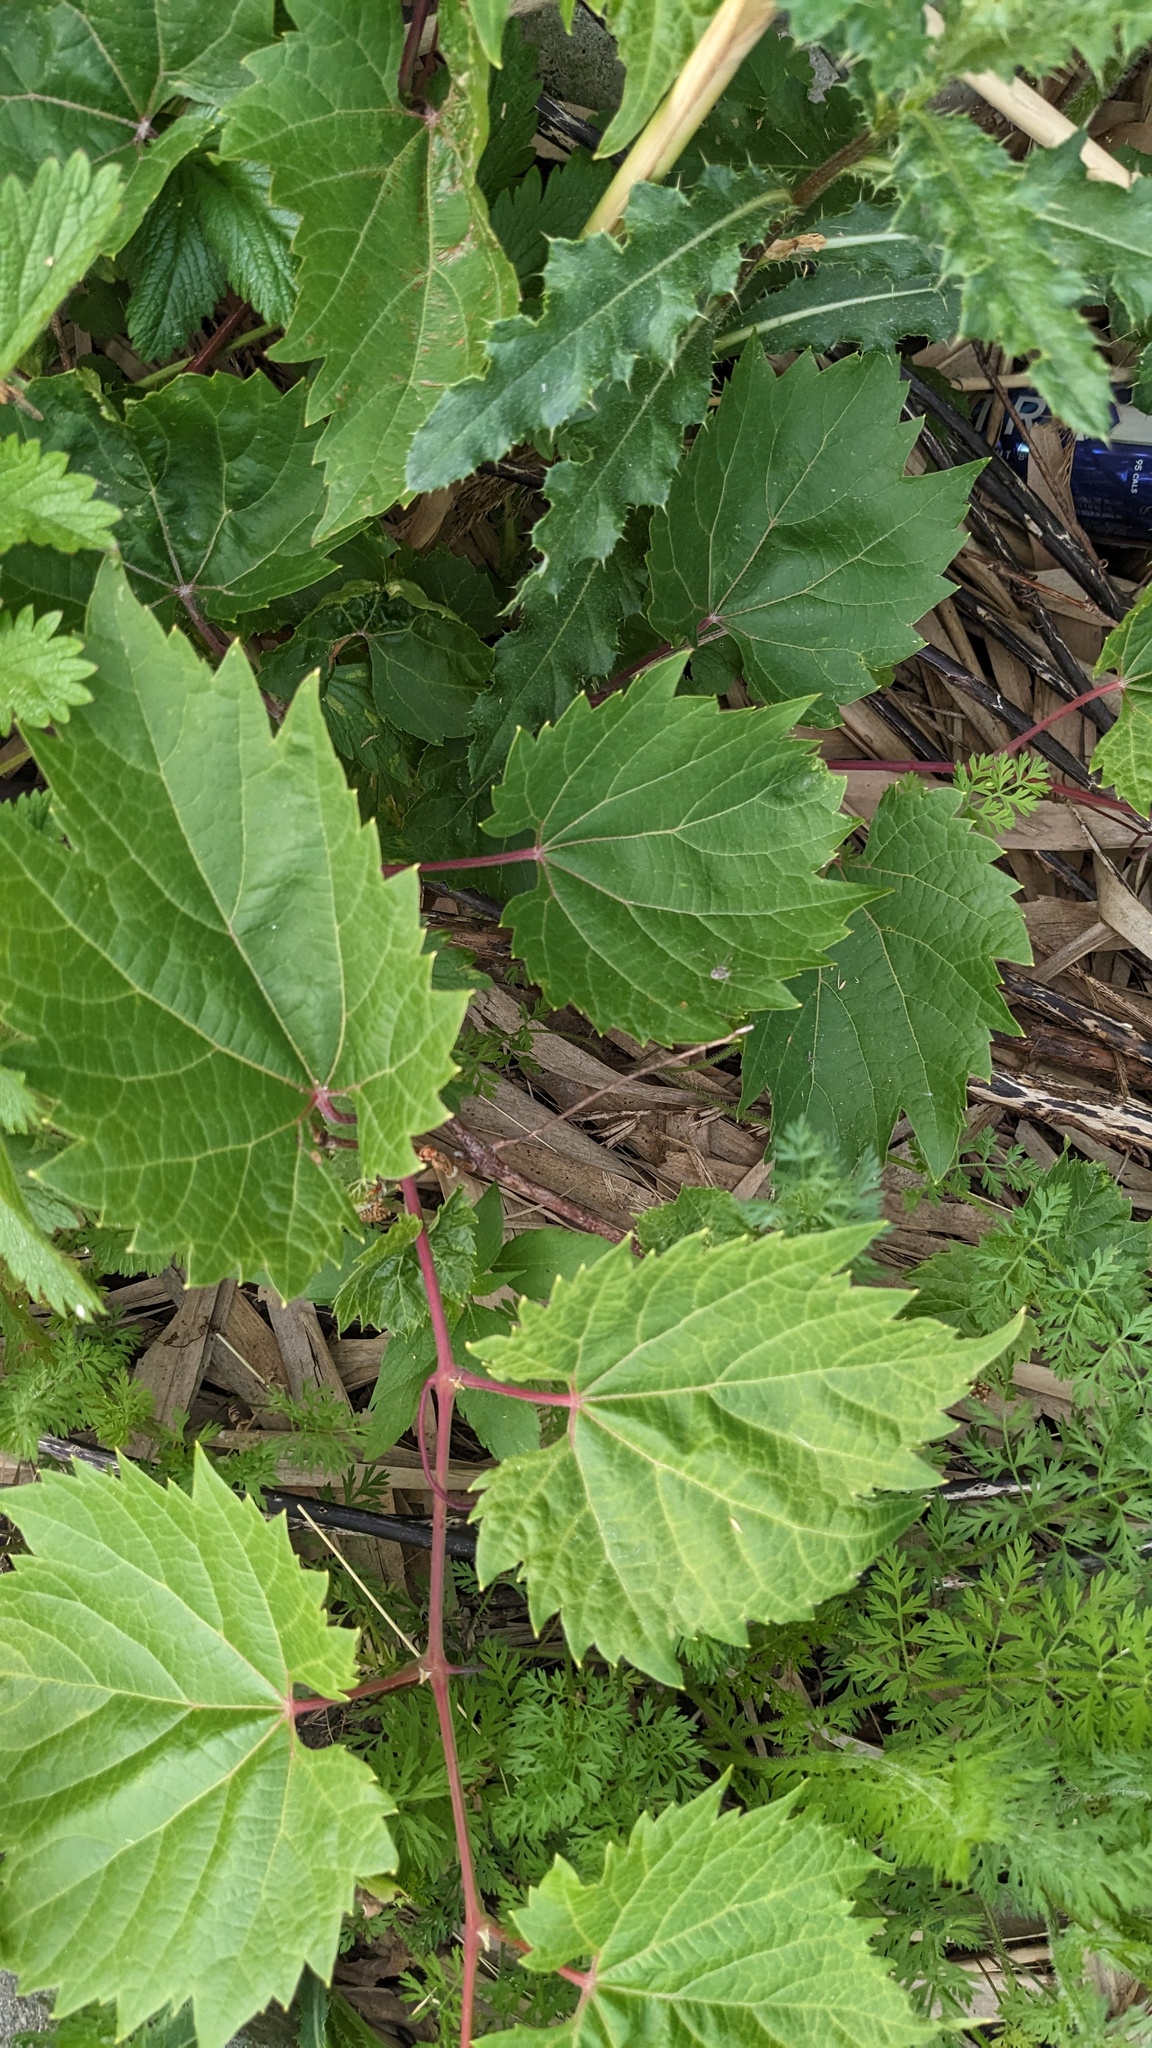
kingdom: Plantae
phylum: Tracheophyta
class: Magnoliopsida
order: Vitales
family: Vitaceae
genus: Vitis
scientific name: Vitis riparia
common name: Frost grape
